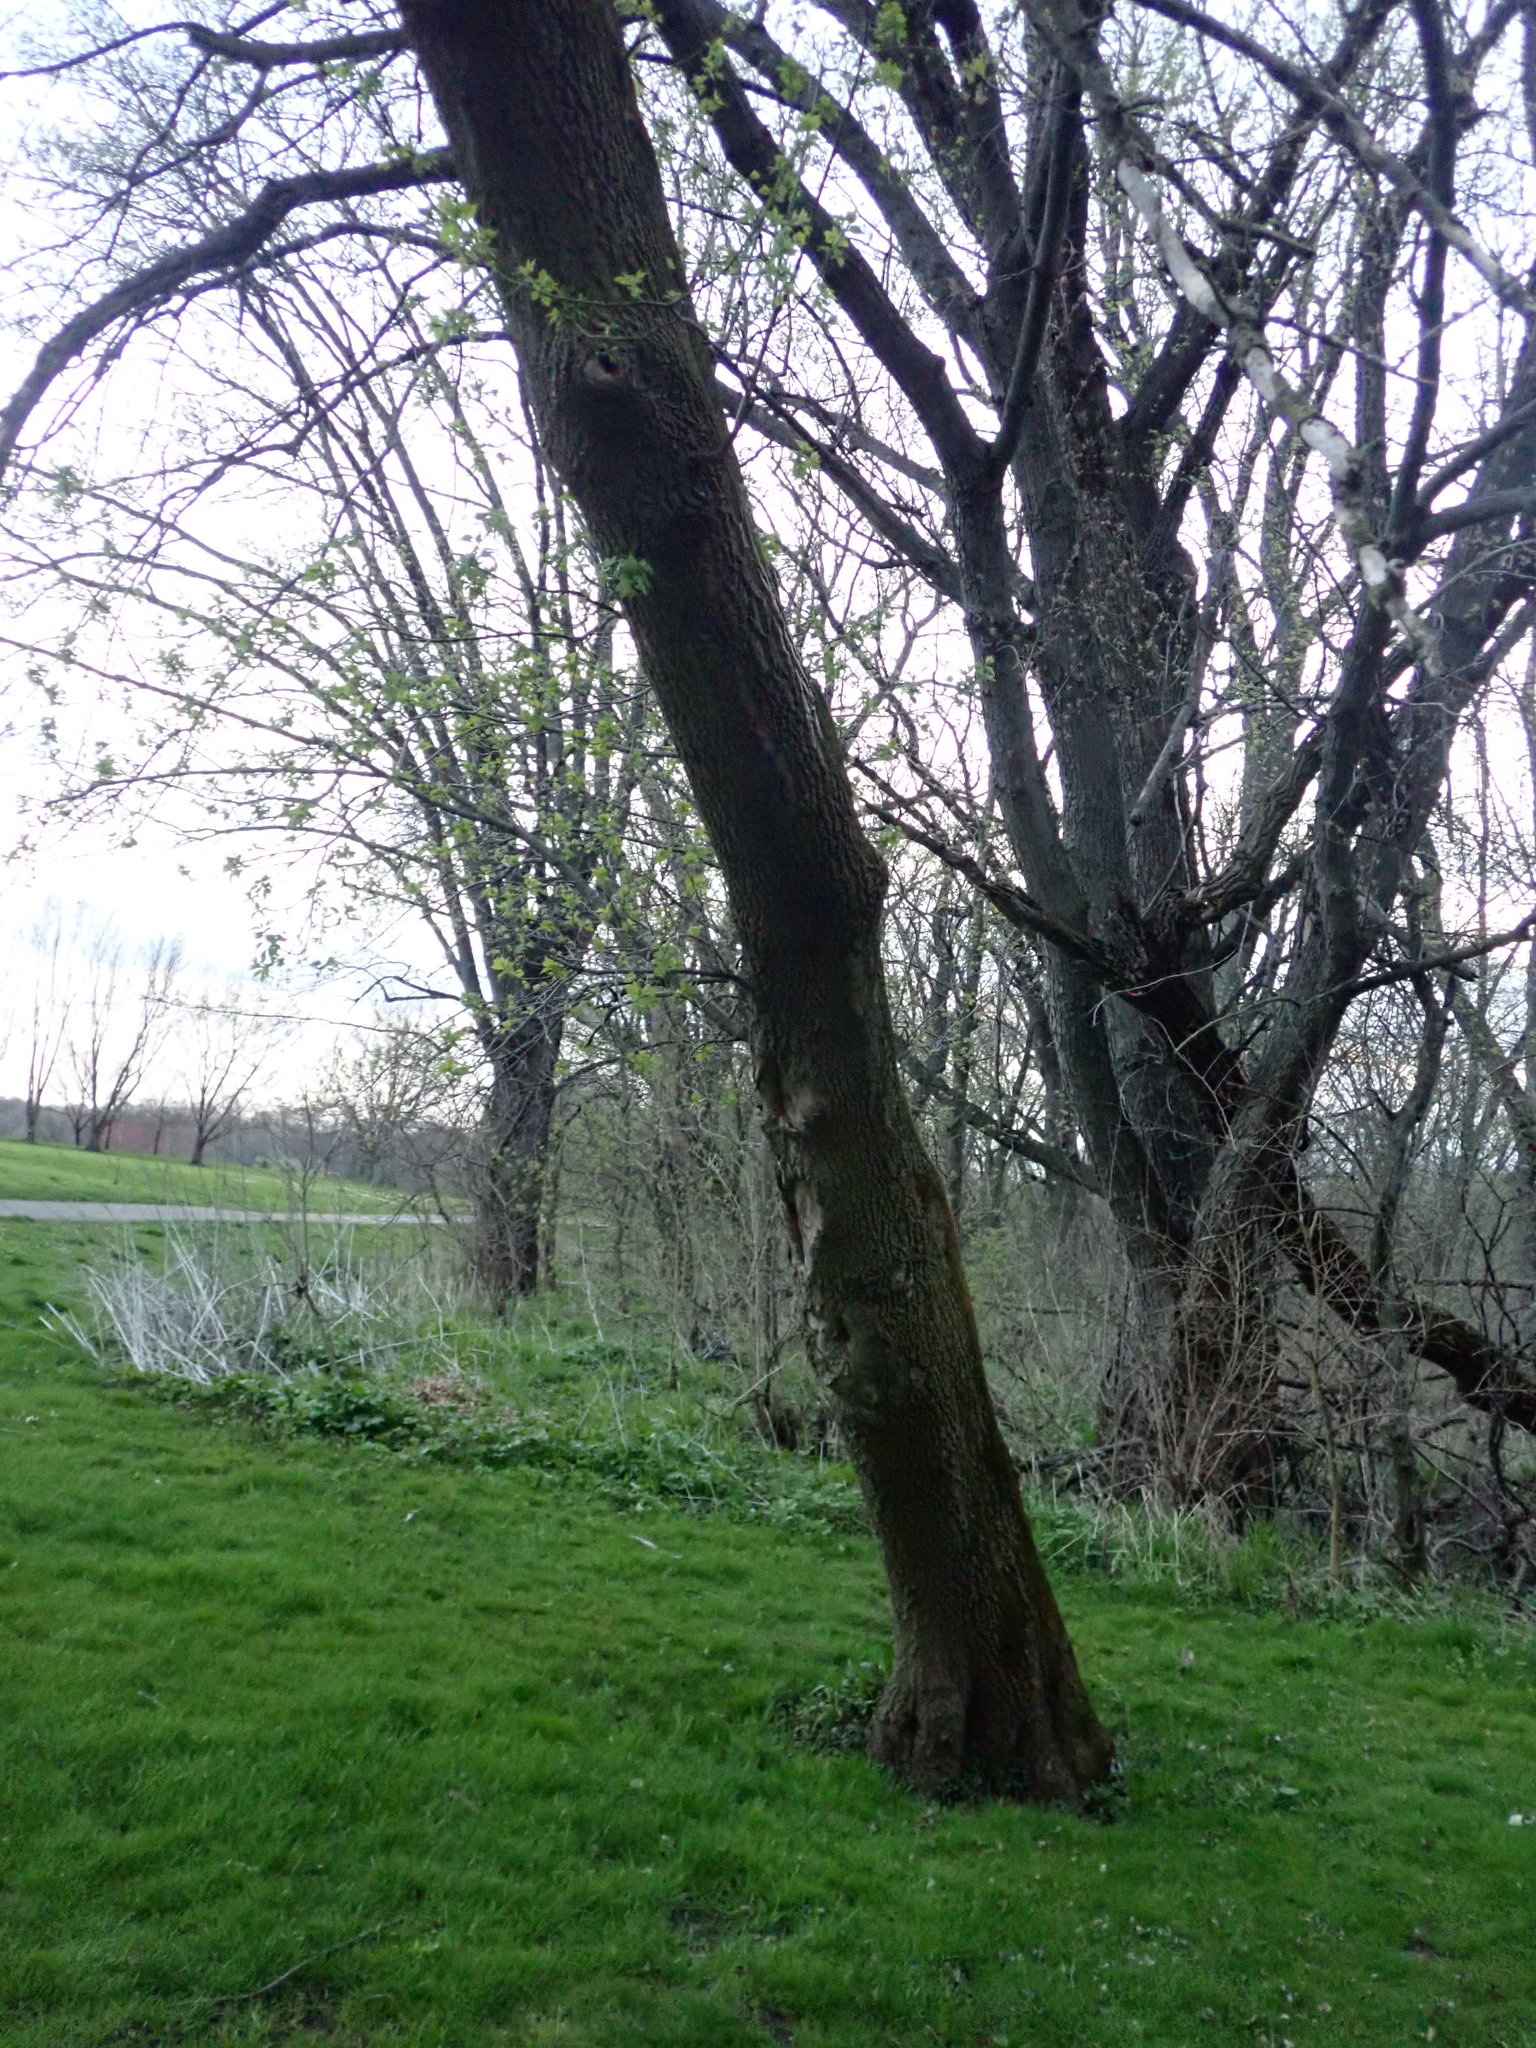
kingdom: Plantae
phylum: Tracheophyta
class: Magnoliopsida
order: Sapindales
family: Sapindaceae
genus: Acer
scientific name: Acer negundo
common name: Ashleaf maple
